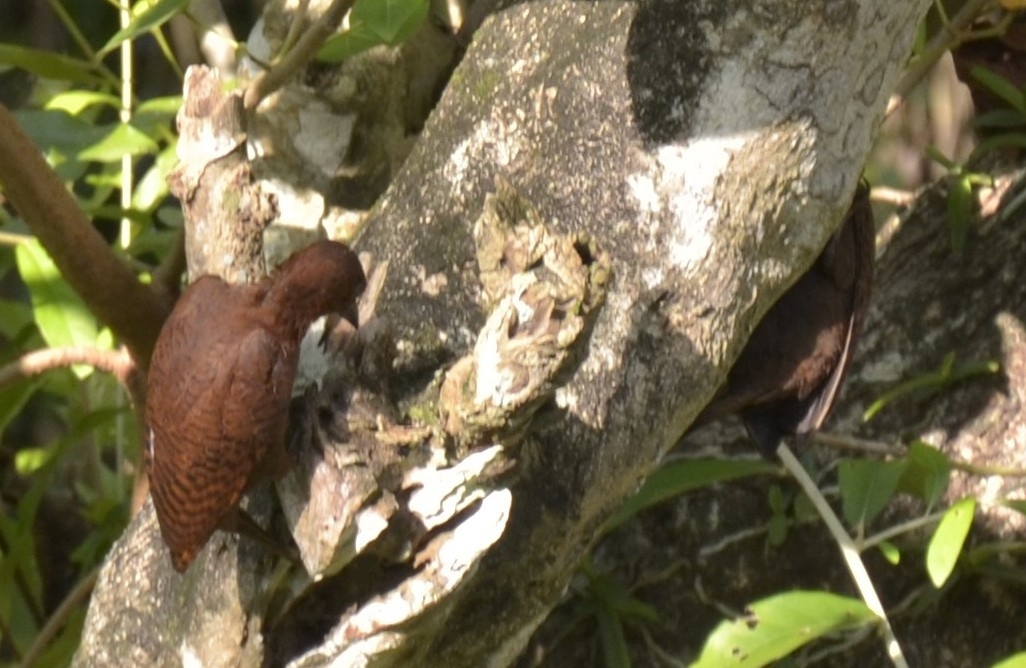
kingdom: Animalia
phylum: Chordata
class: Aves
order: Piciformes
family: Picidae
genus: Micropternus
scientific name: Micropternus brachyurus
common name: Rufous woodpecker
